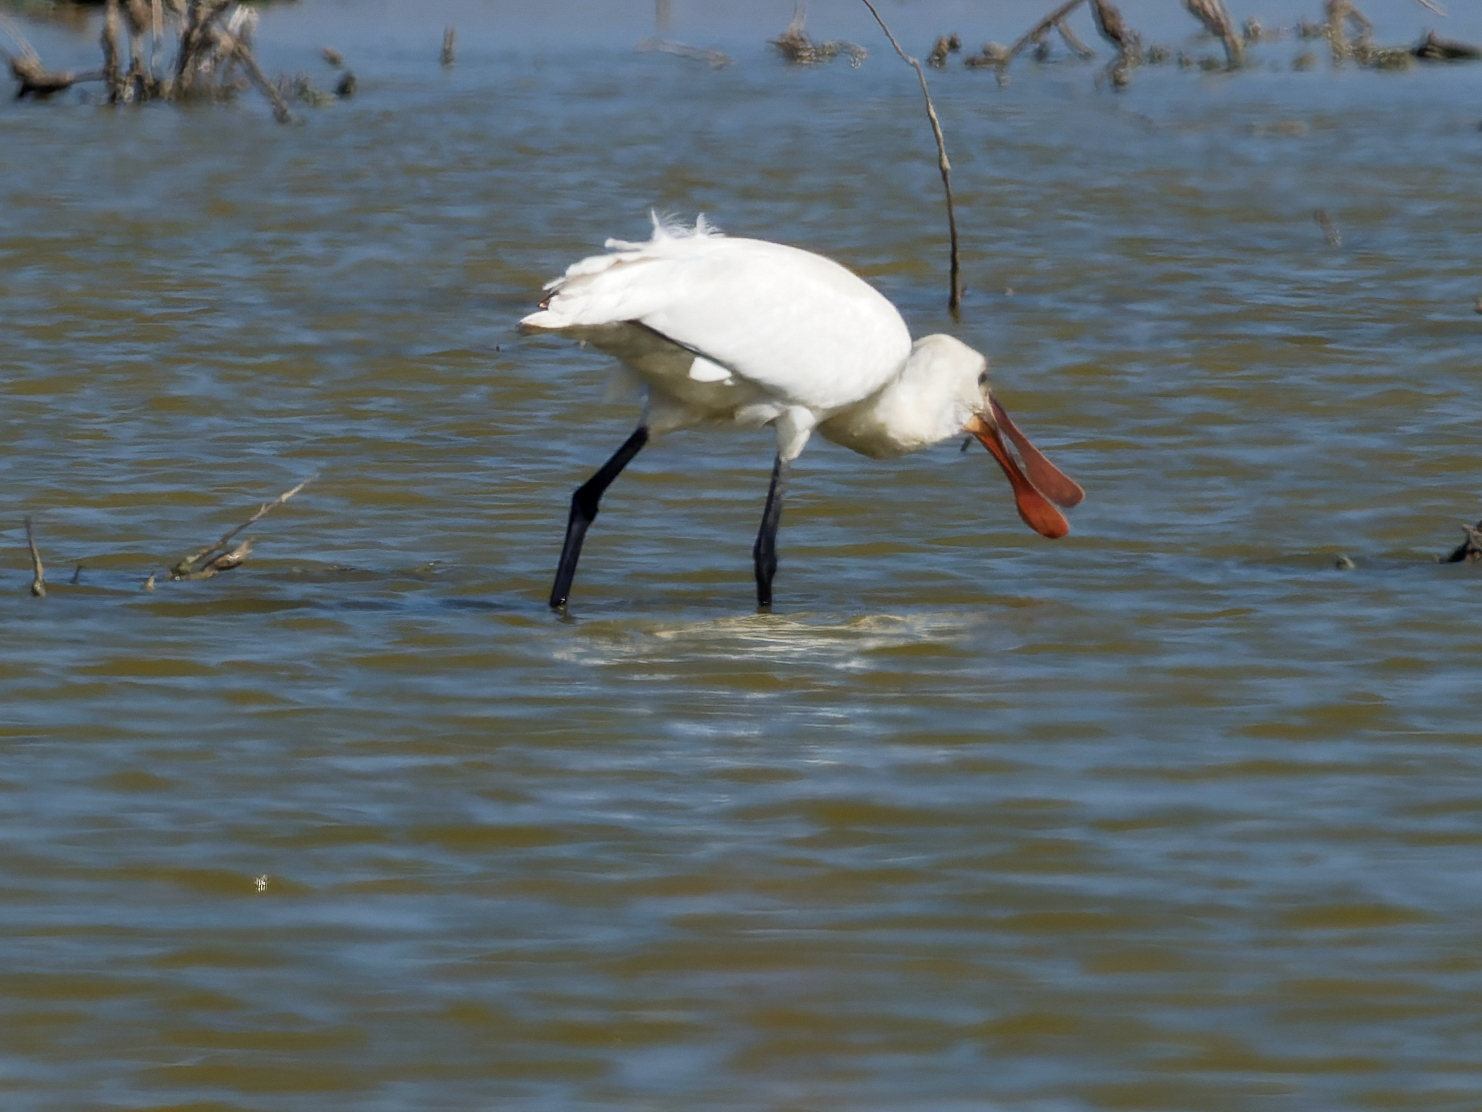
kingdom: Animalia
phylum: Chordata
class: Aves
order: Pelecaniformes
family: Threskiornithidae
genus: Platalea
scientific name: Platalea leucorodia
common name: Eurasian spoonbill
